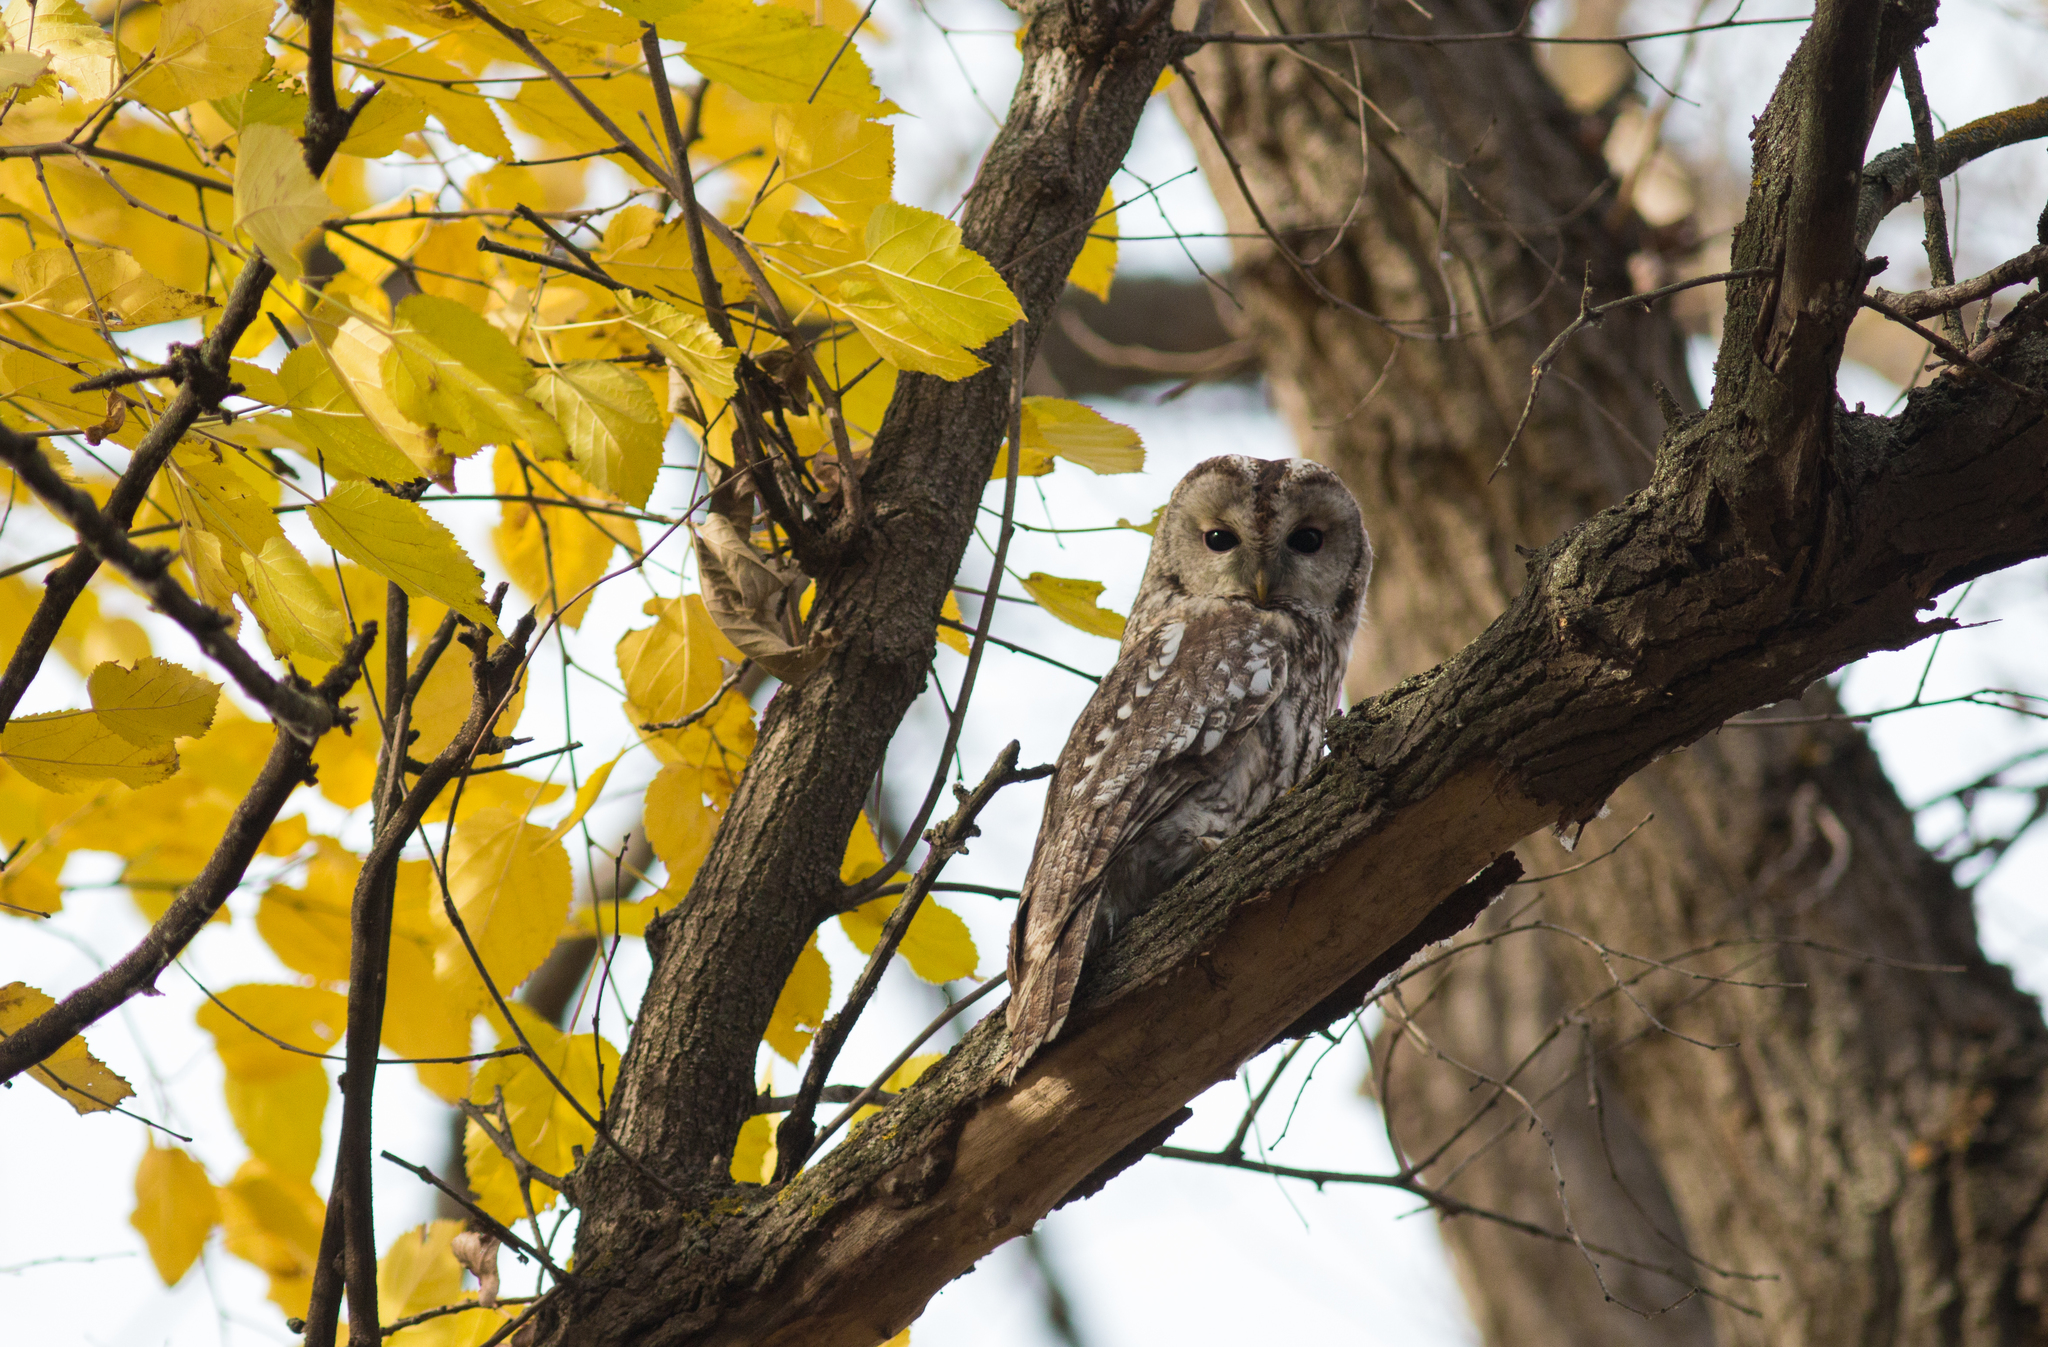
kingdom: Animalia
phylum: Chordata
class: Aves
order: Strigiformes
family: Strigidae
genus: Strix
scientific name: Strix aluco
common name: Tawny owl
